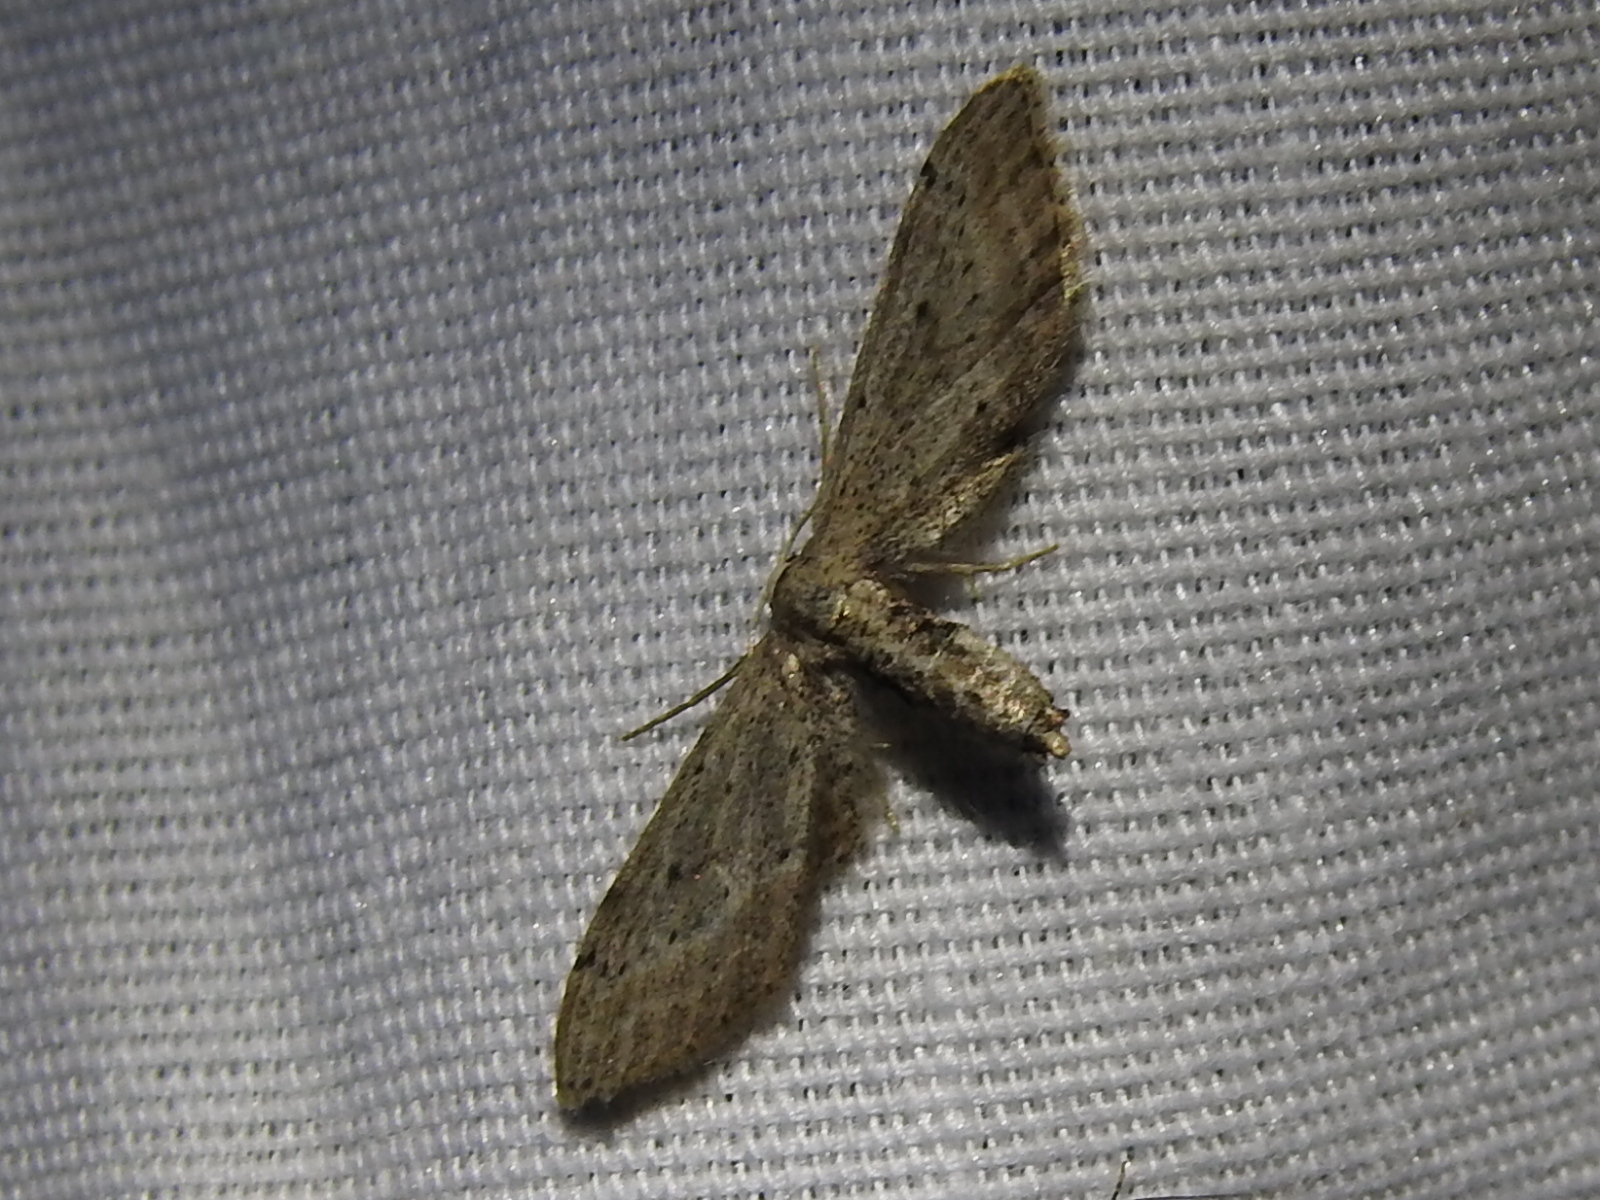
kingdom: Animalia
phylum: Arthropoda
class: Insecta
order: Lepidoptera
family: Geometridae
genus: Eumacrodes
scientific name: Eumacrodes yponomeutaria
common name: Slender geometrid moth
